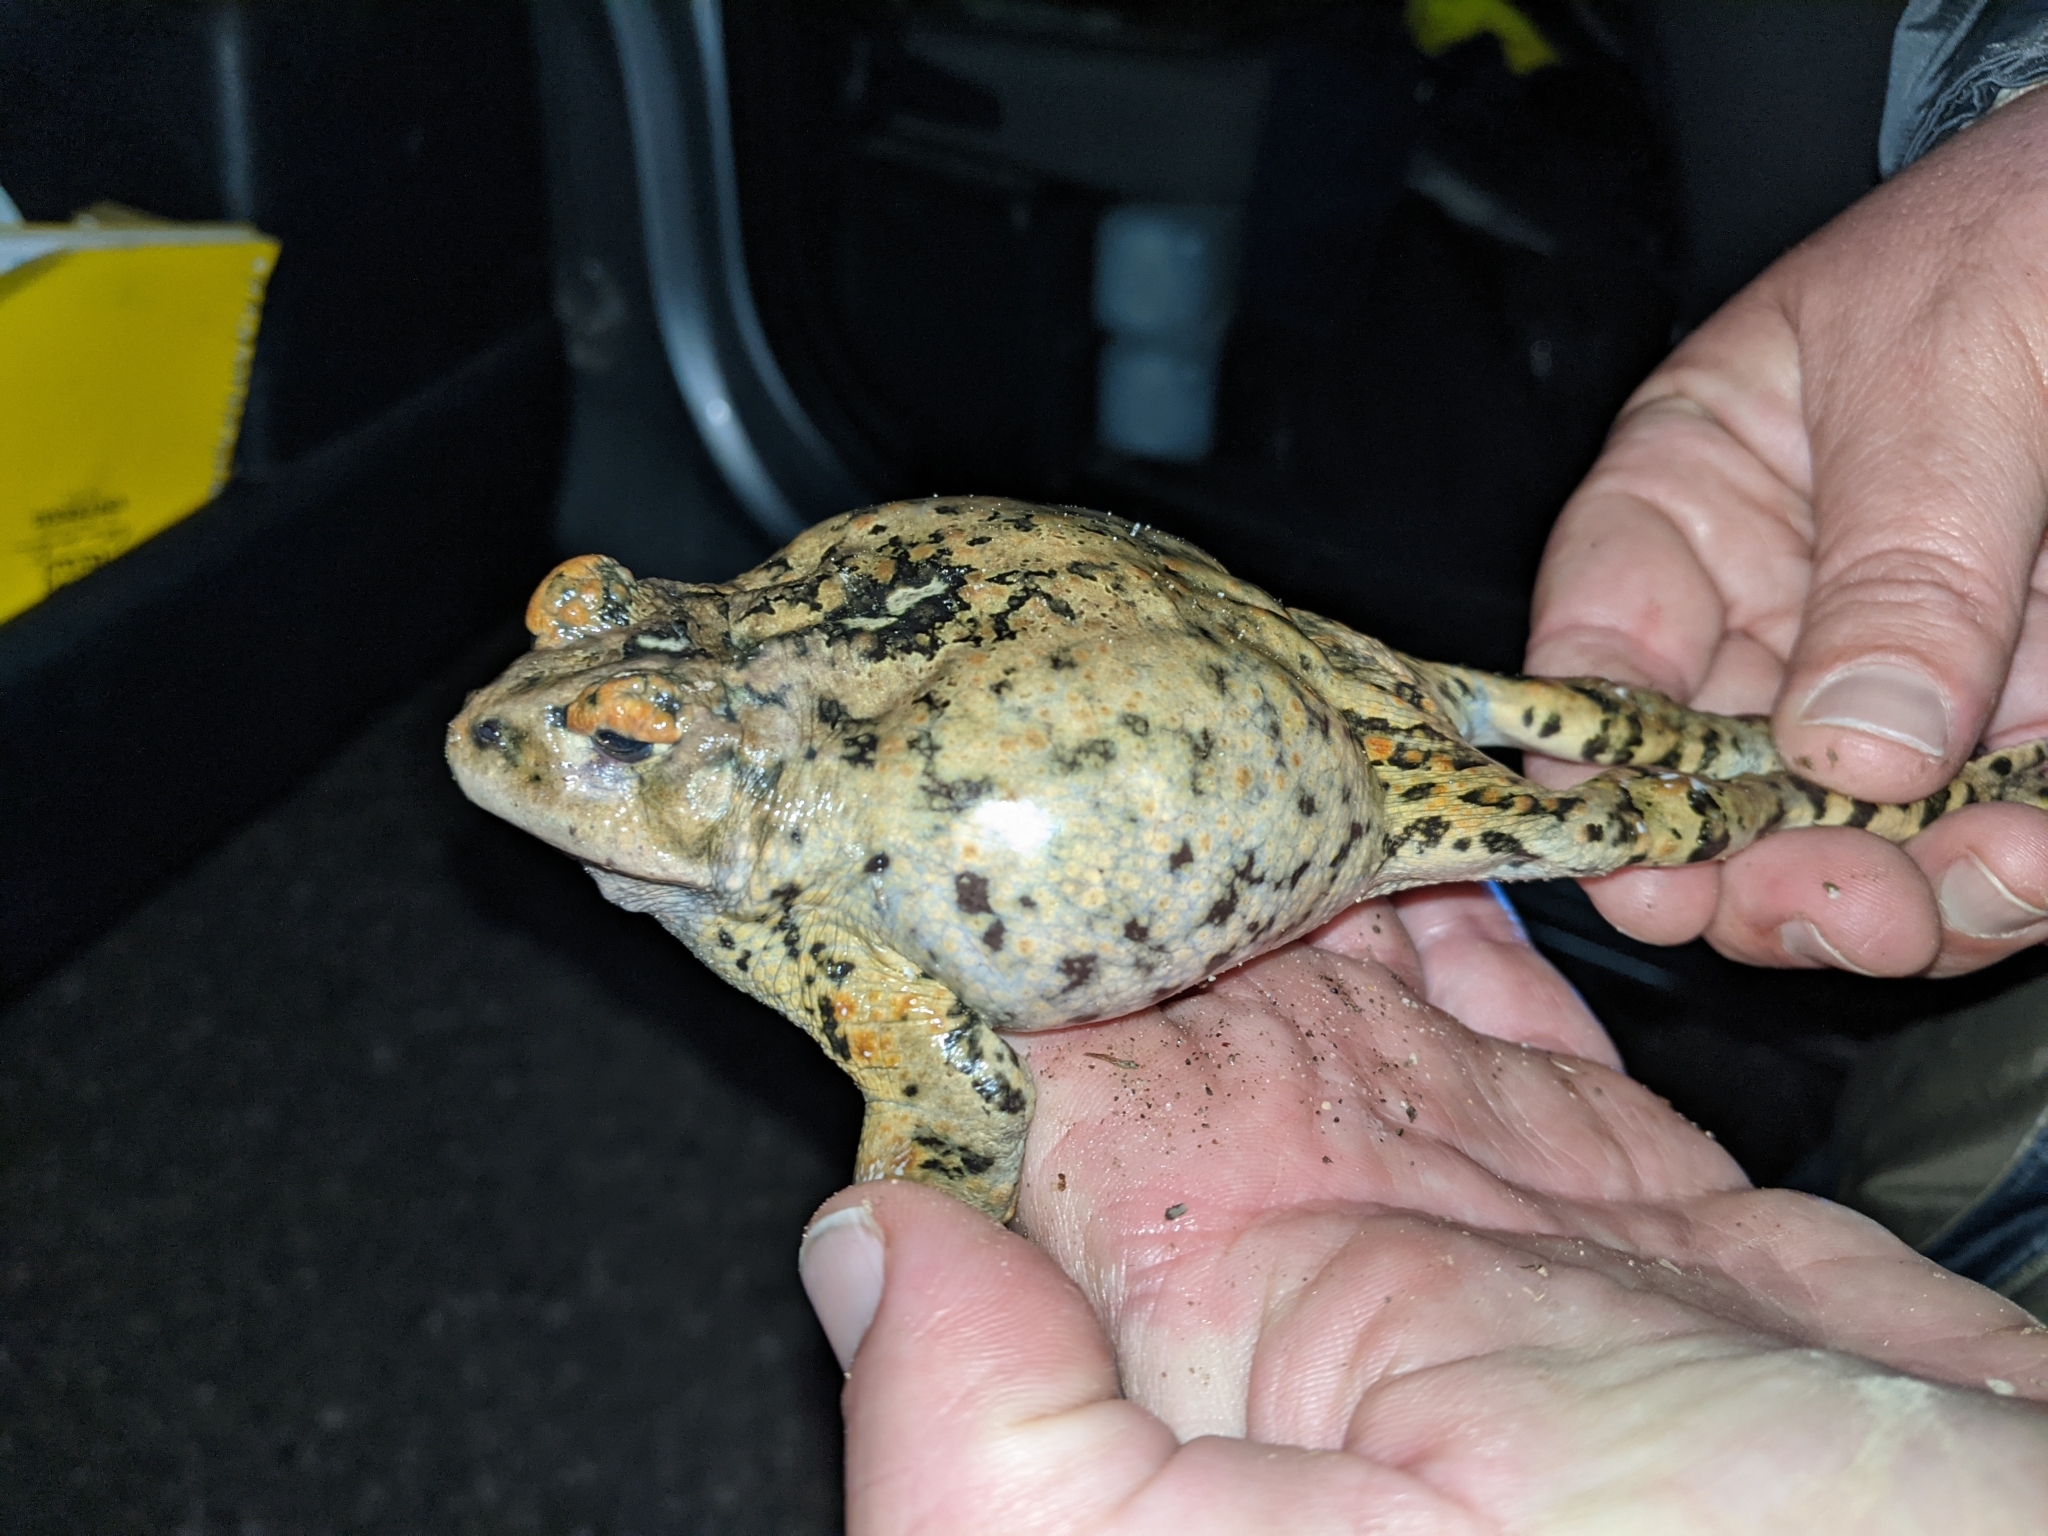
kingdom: Animalia
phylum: Chordata
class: Amphibia
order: Anura
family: Bufonidae
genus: Anaxyrus
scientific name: Anaxyrus boreas
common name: Western toad
